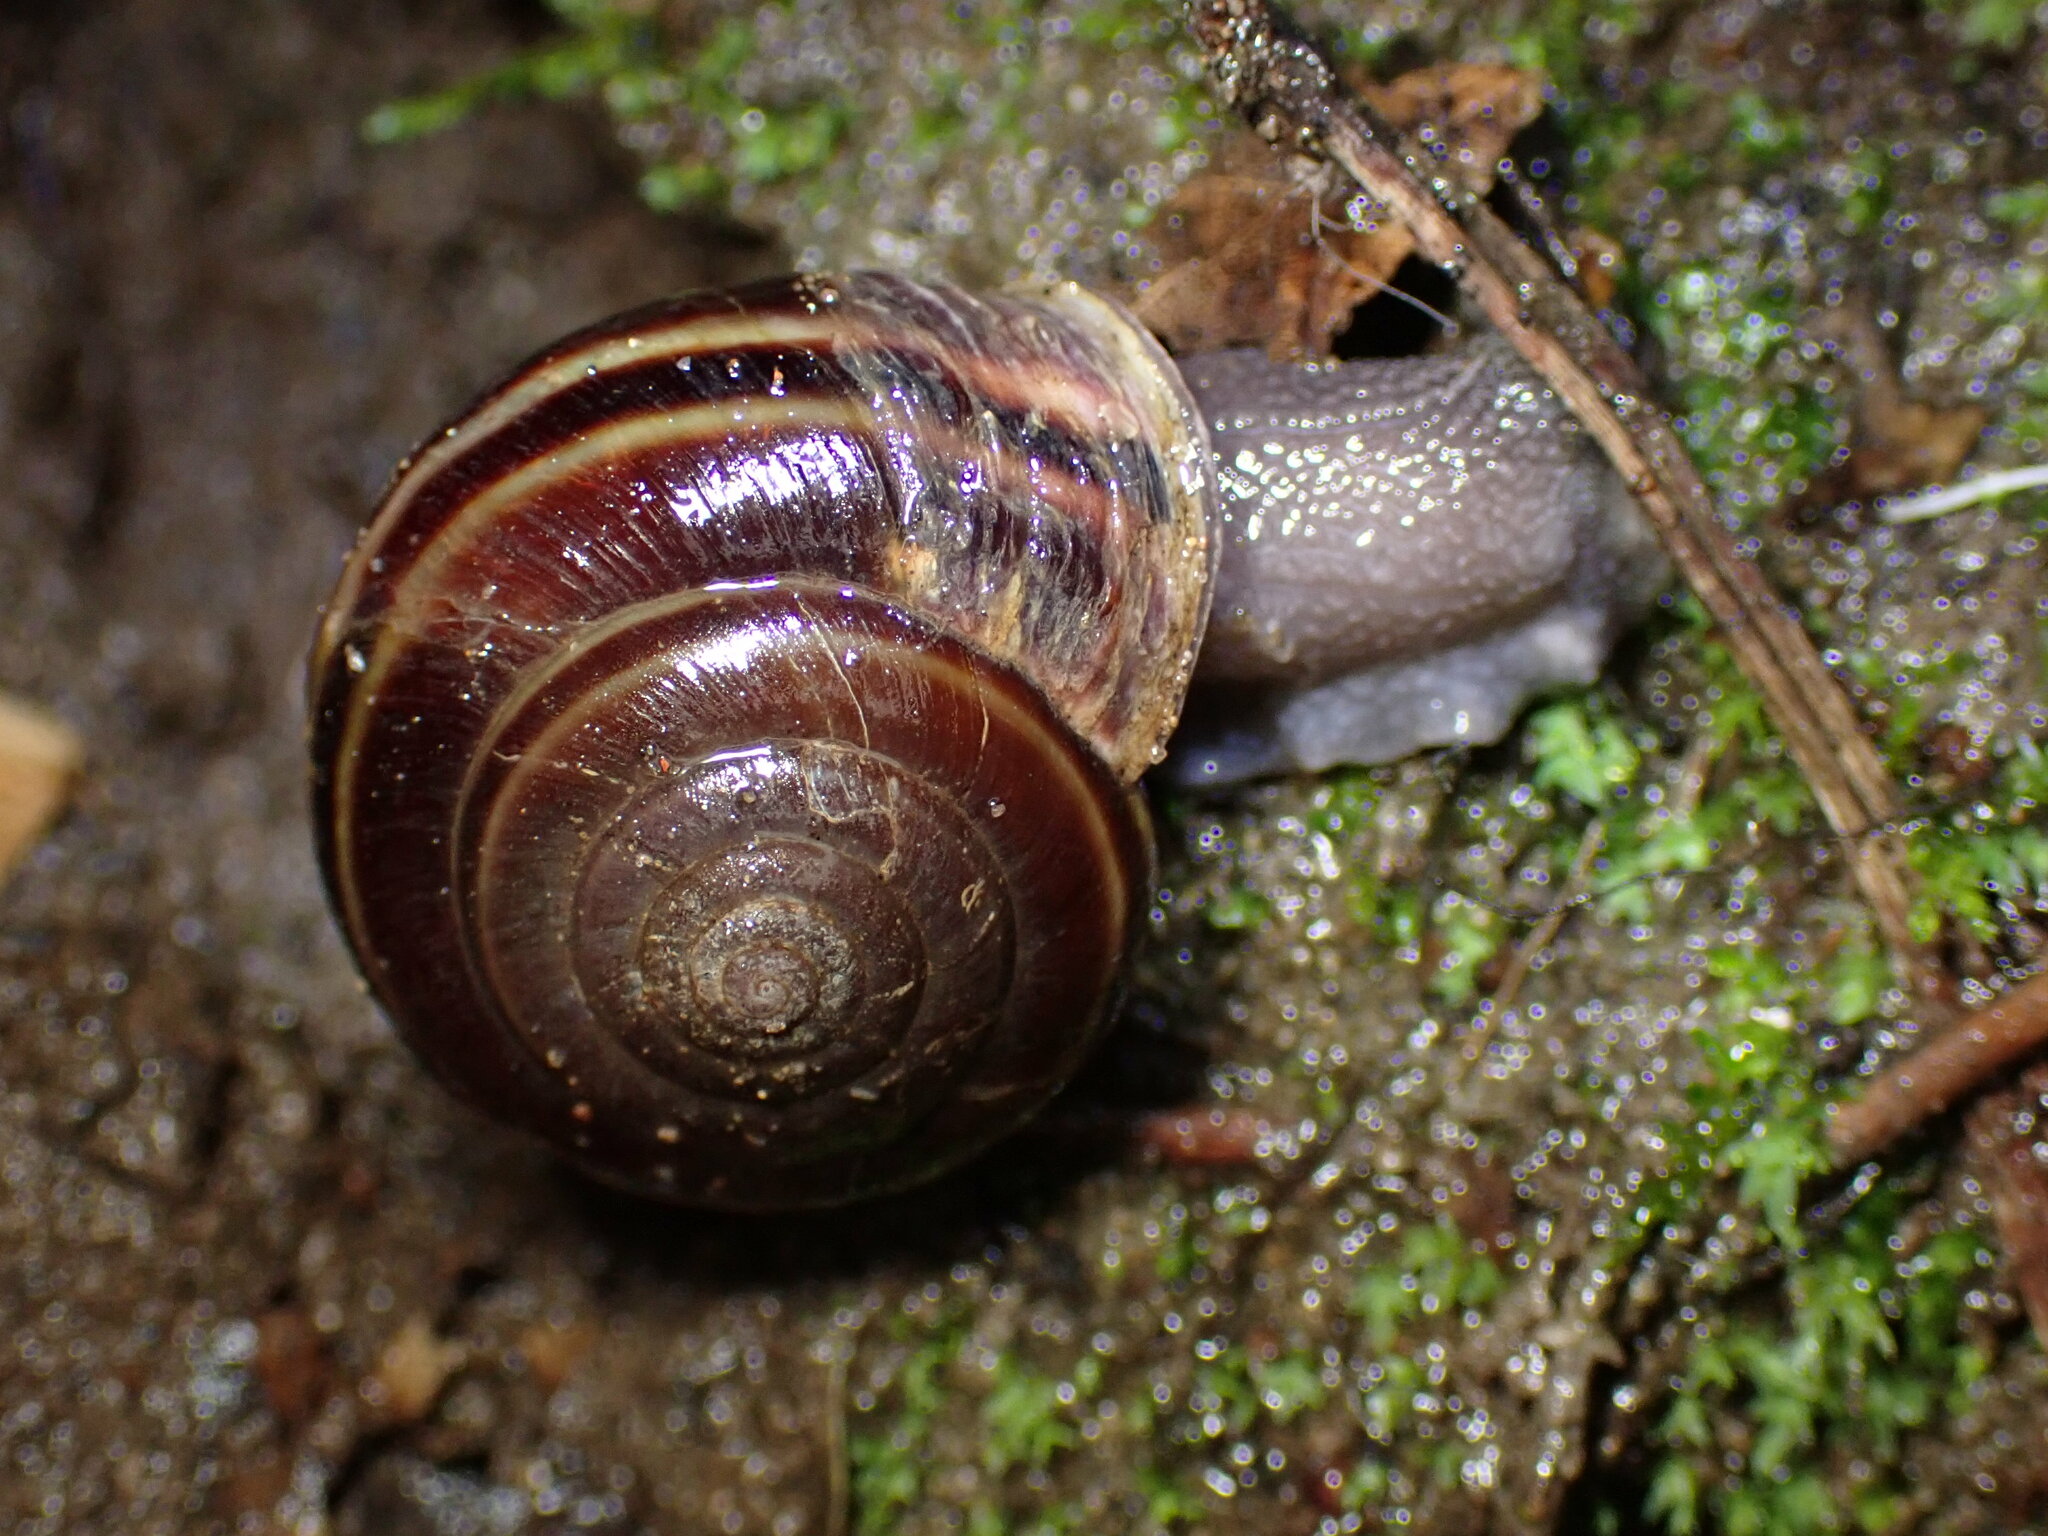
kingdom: Animalia
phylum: Mollusca
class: Gastropoda
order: Stylommatophora
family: Xanthonychidae
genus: Helminthoglypta
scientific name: Helminthoglypta sequoicola
